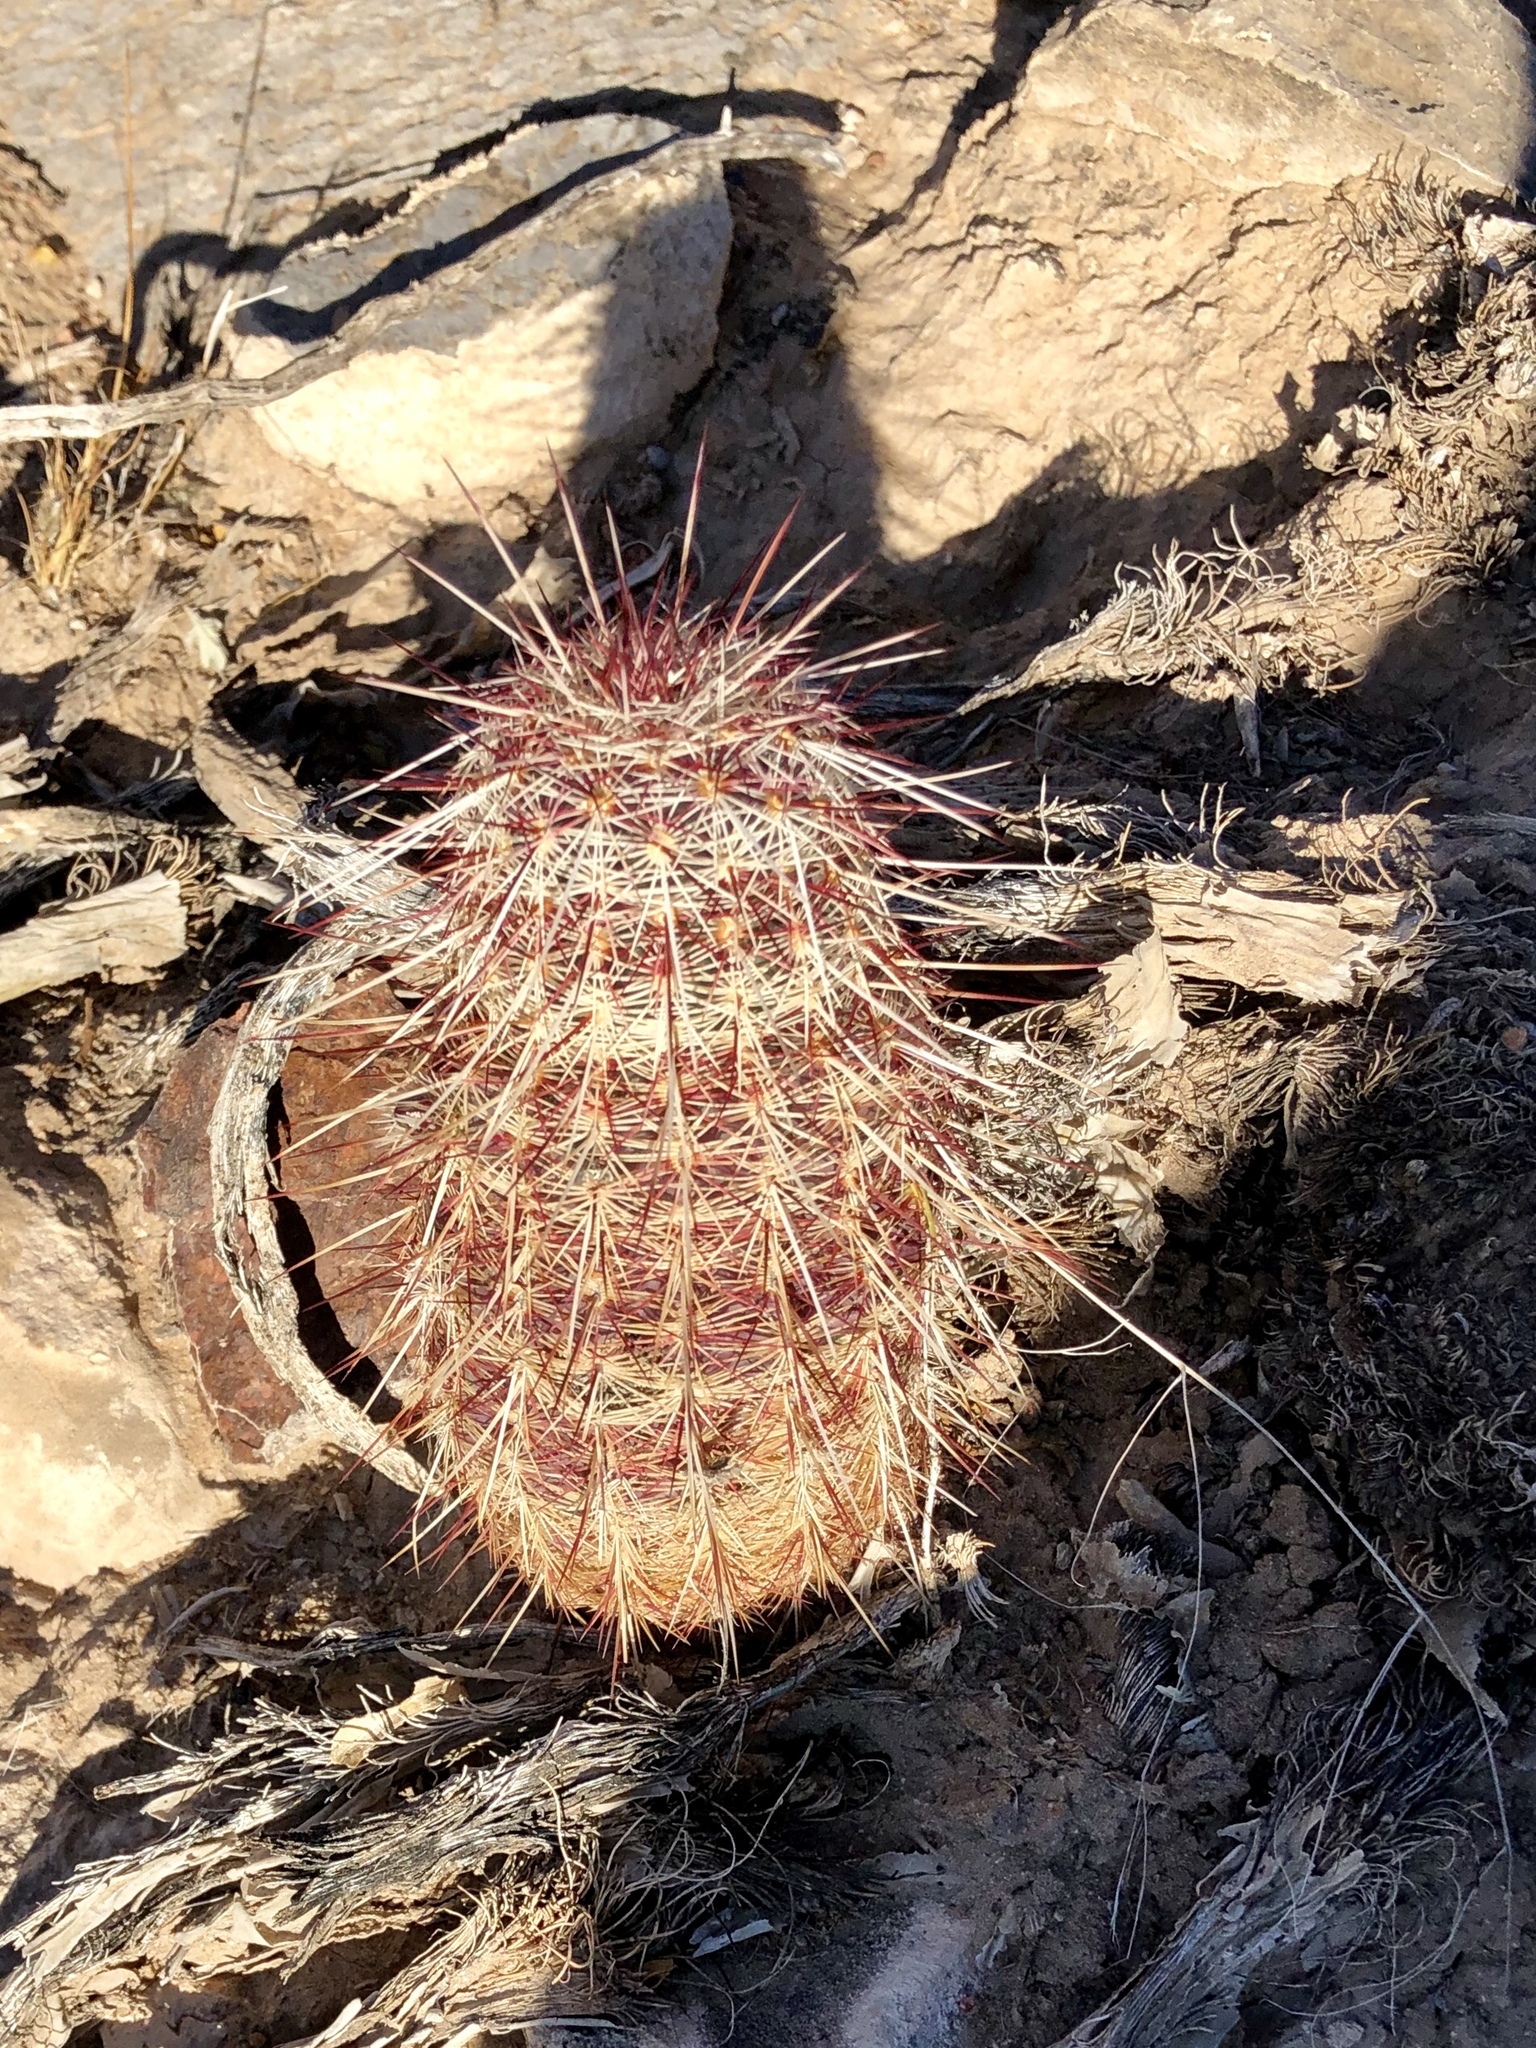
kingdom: Plantae
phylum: Tracheophyta
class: Magnoliopsida
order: Caryophyllales
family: Cactaceae
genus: Echinocereus
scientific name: Echinocereus viridiflorus
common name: Nylon hedgehog cactus
